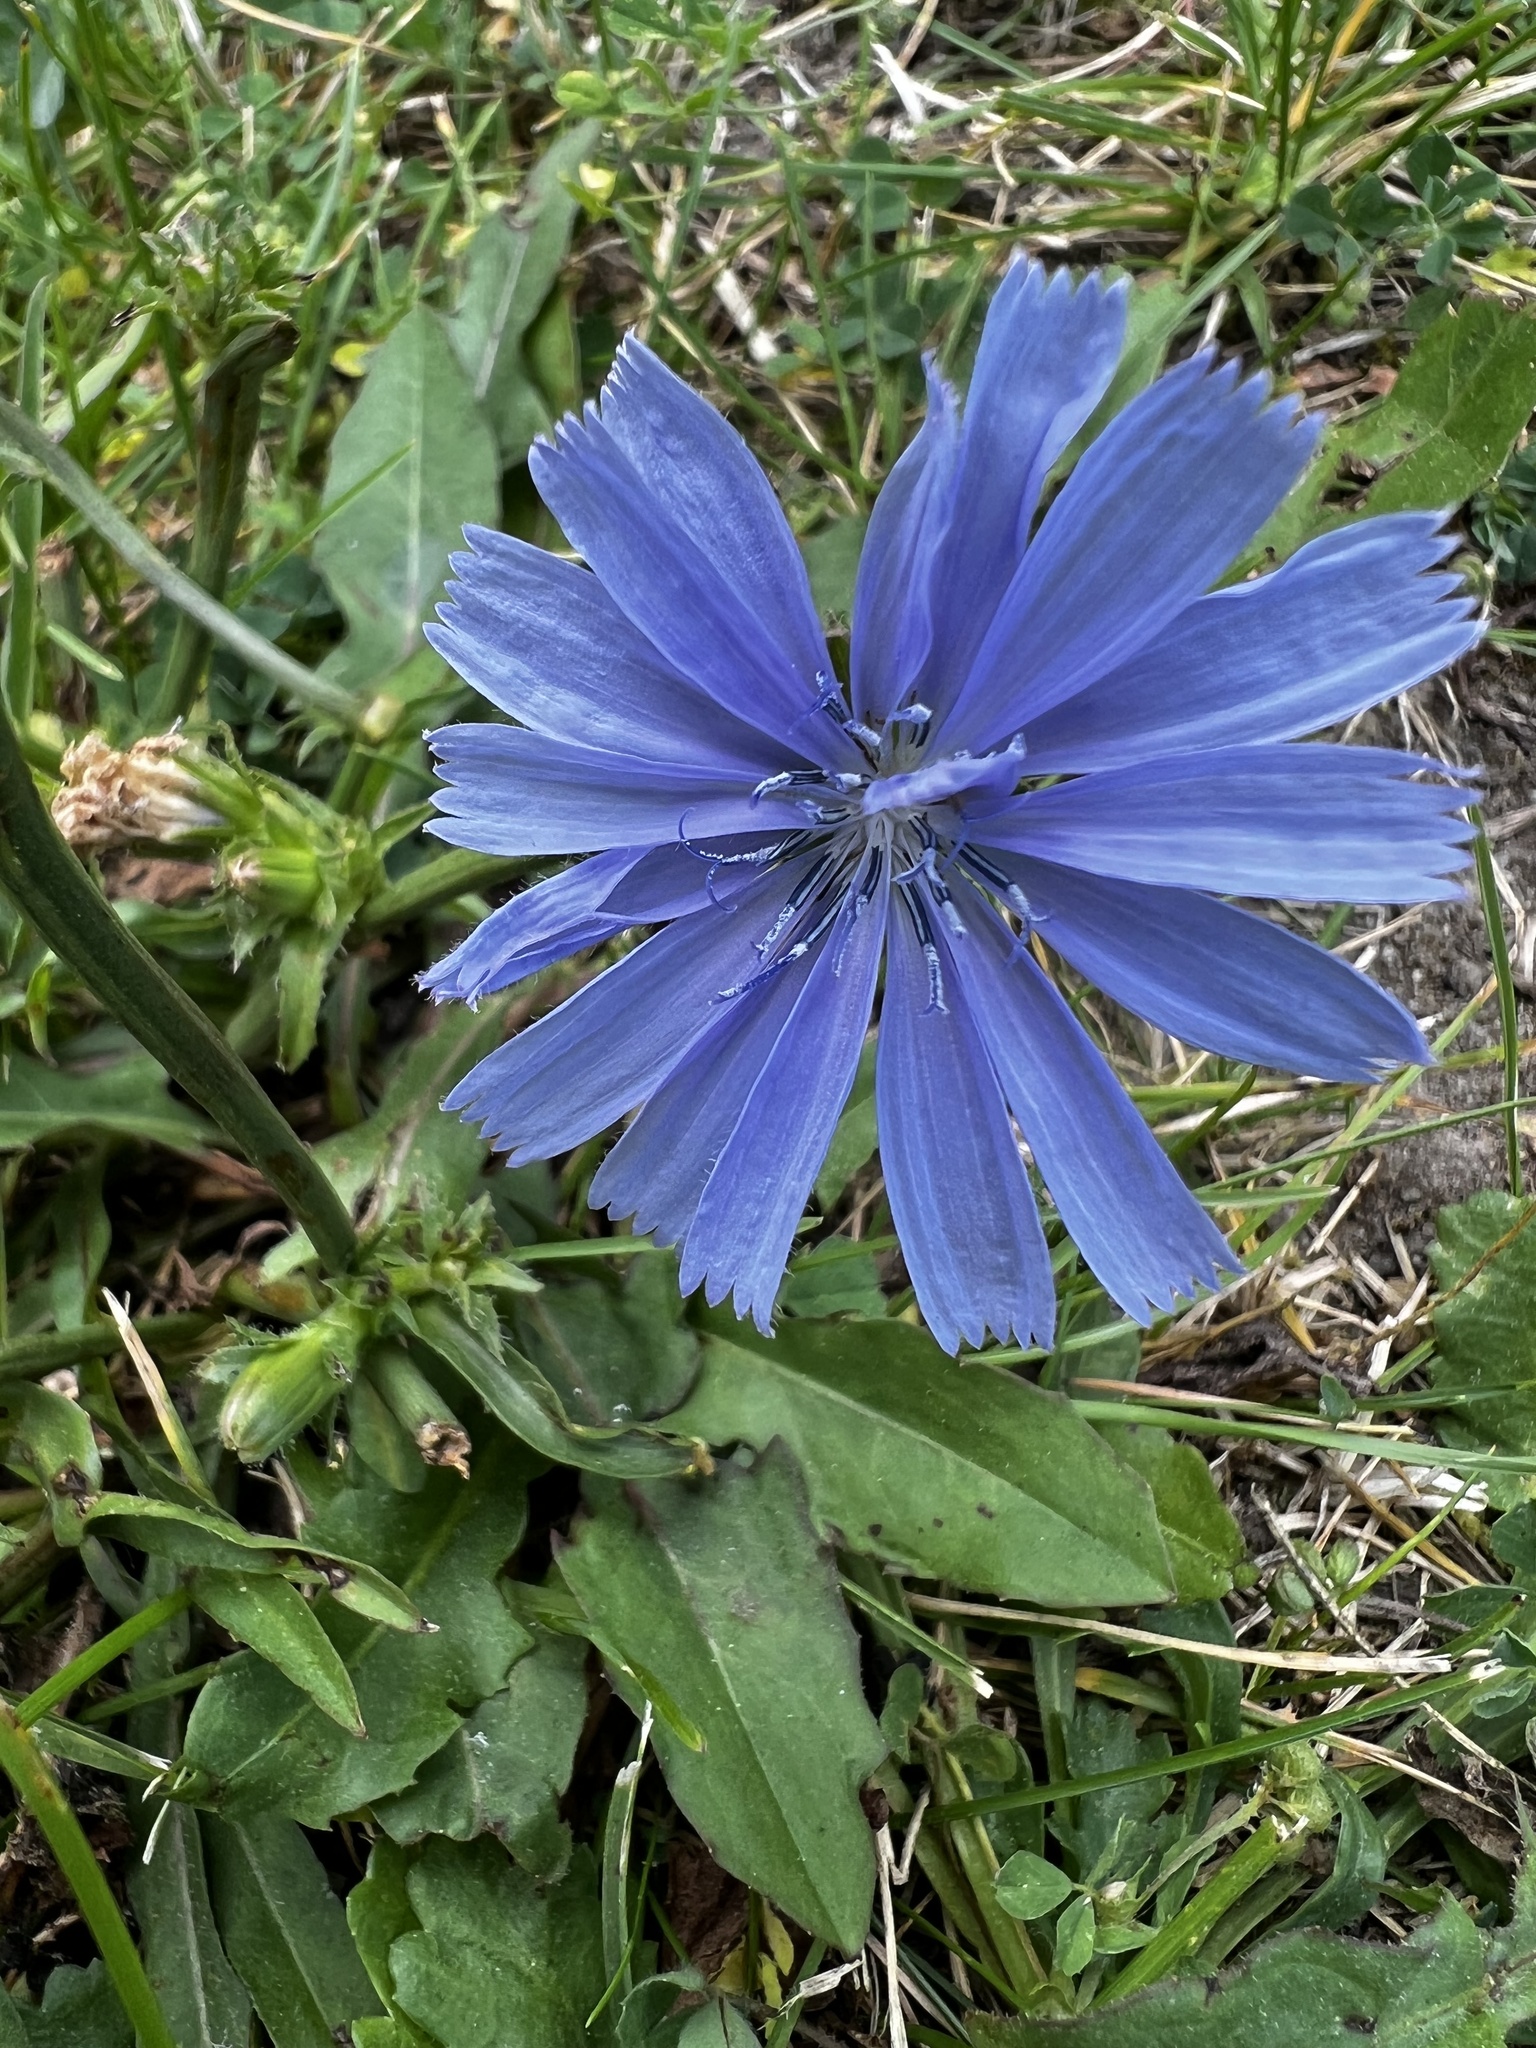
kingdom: Plantae
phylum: Tracheophyta
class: Magnoliopsida
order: Asterales
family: Asteraceae
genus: Cichorium
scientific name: Cichorium intybus
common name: Chicory
